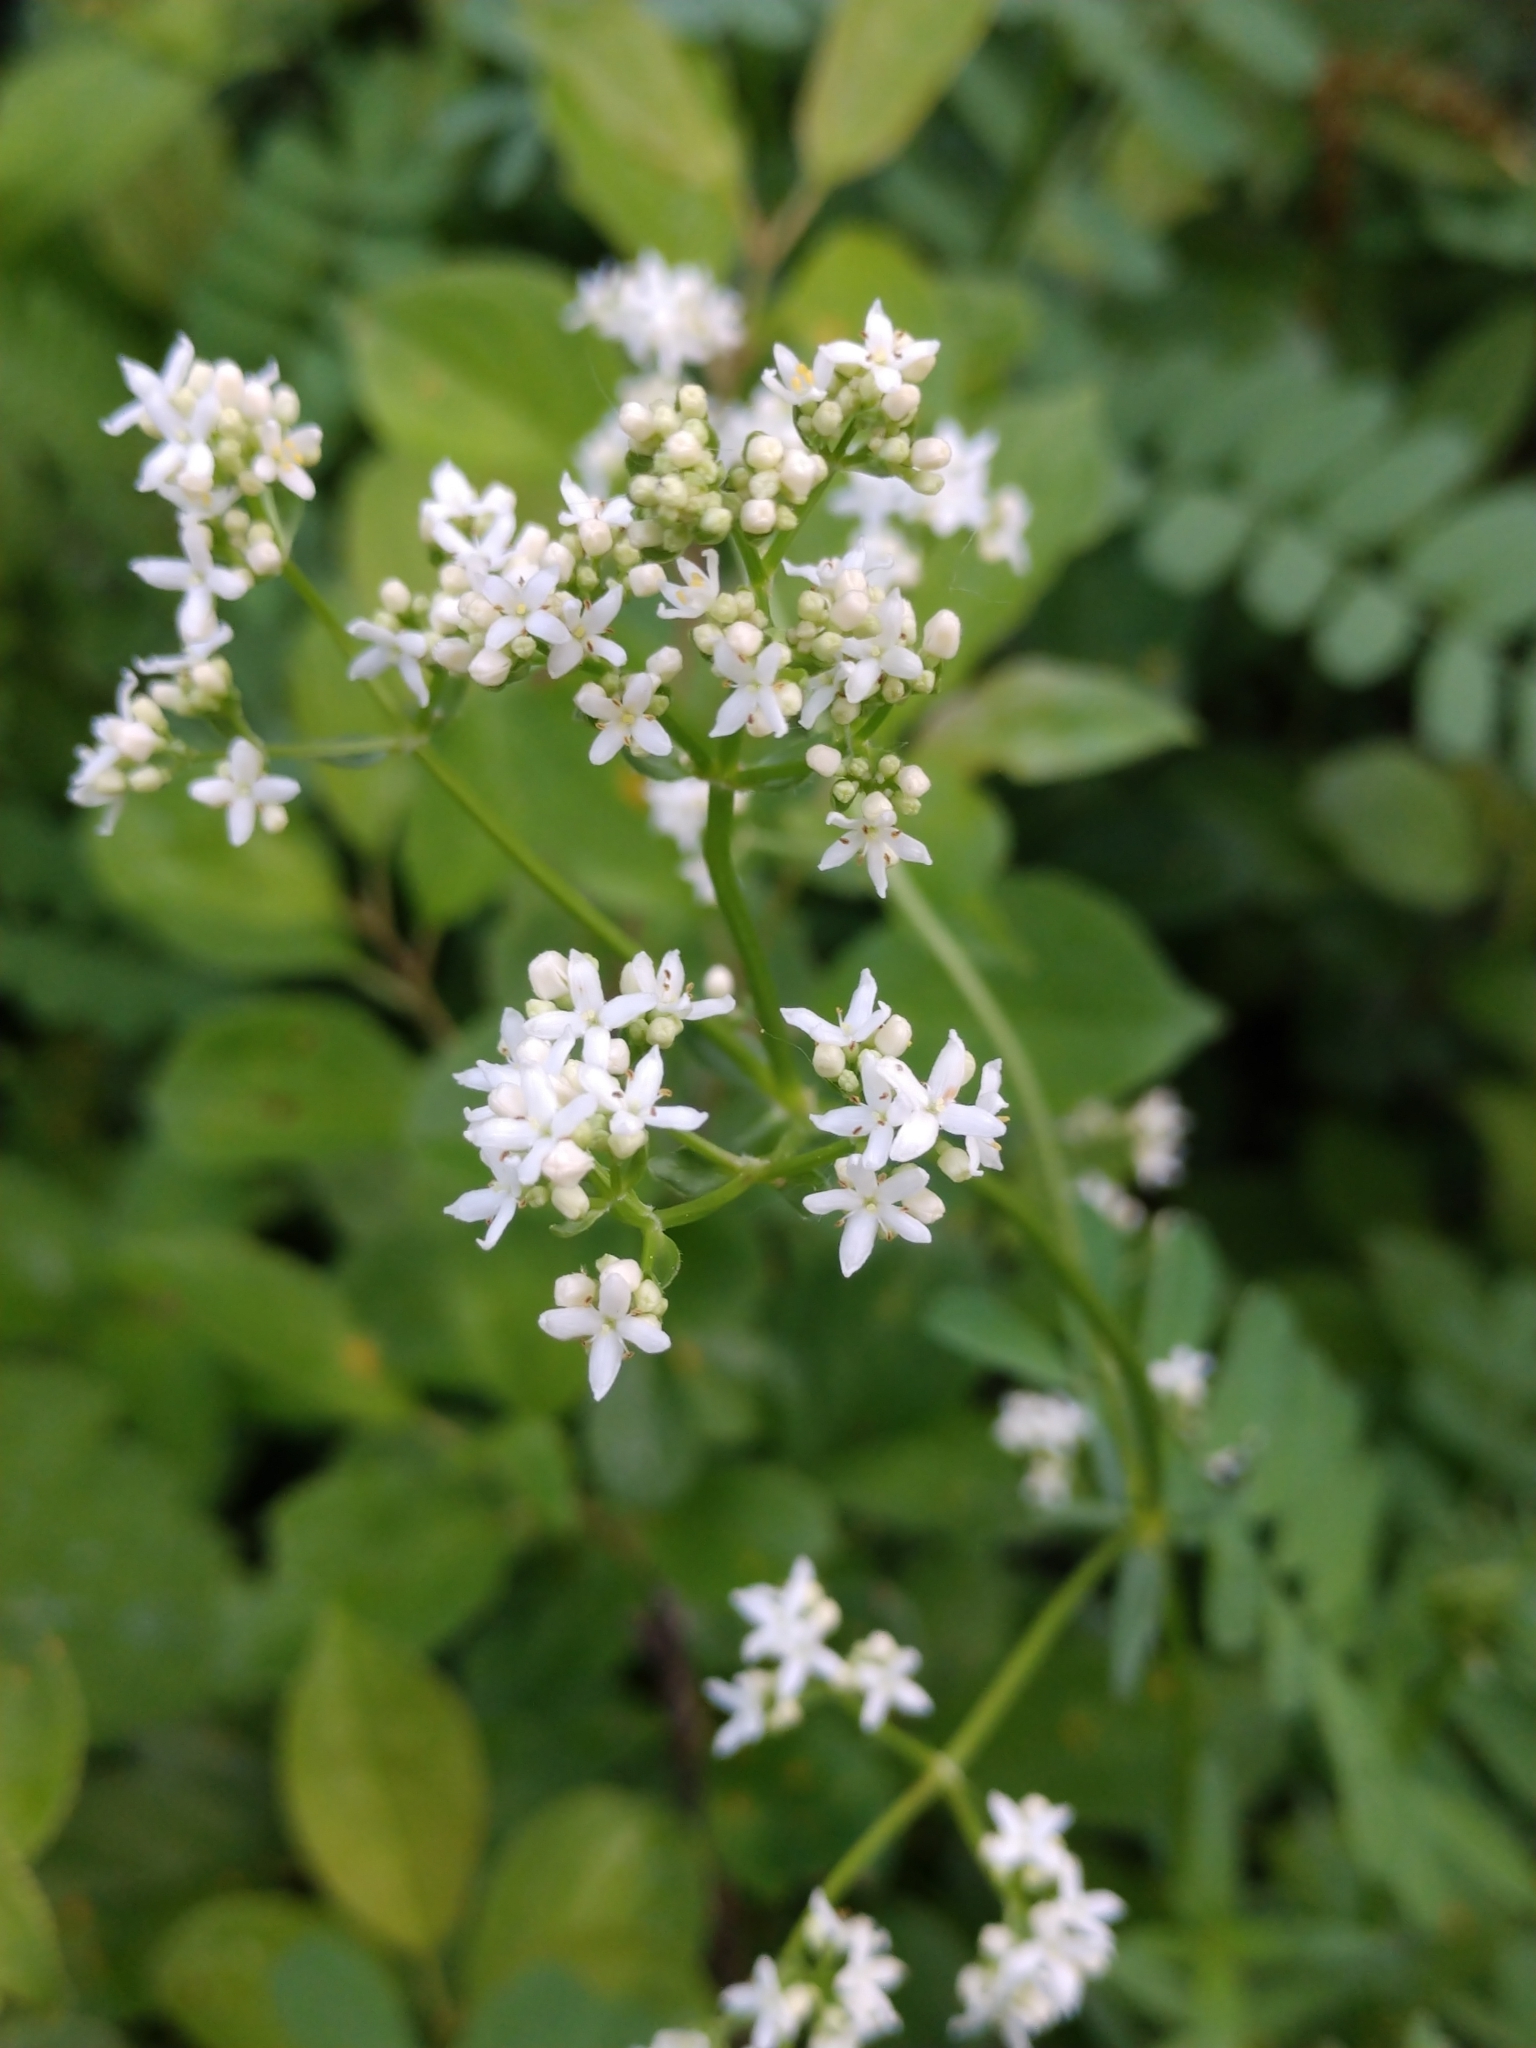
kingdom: Plantae
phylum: Tracheophyta
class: Magnoliopsida
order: Gentianales
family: Rubiaceae
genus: Galium
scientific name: Galium boreale
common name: Northern bedstraw
